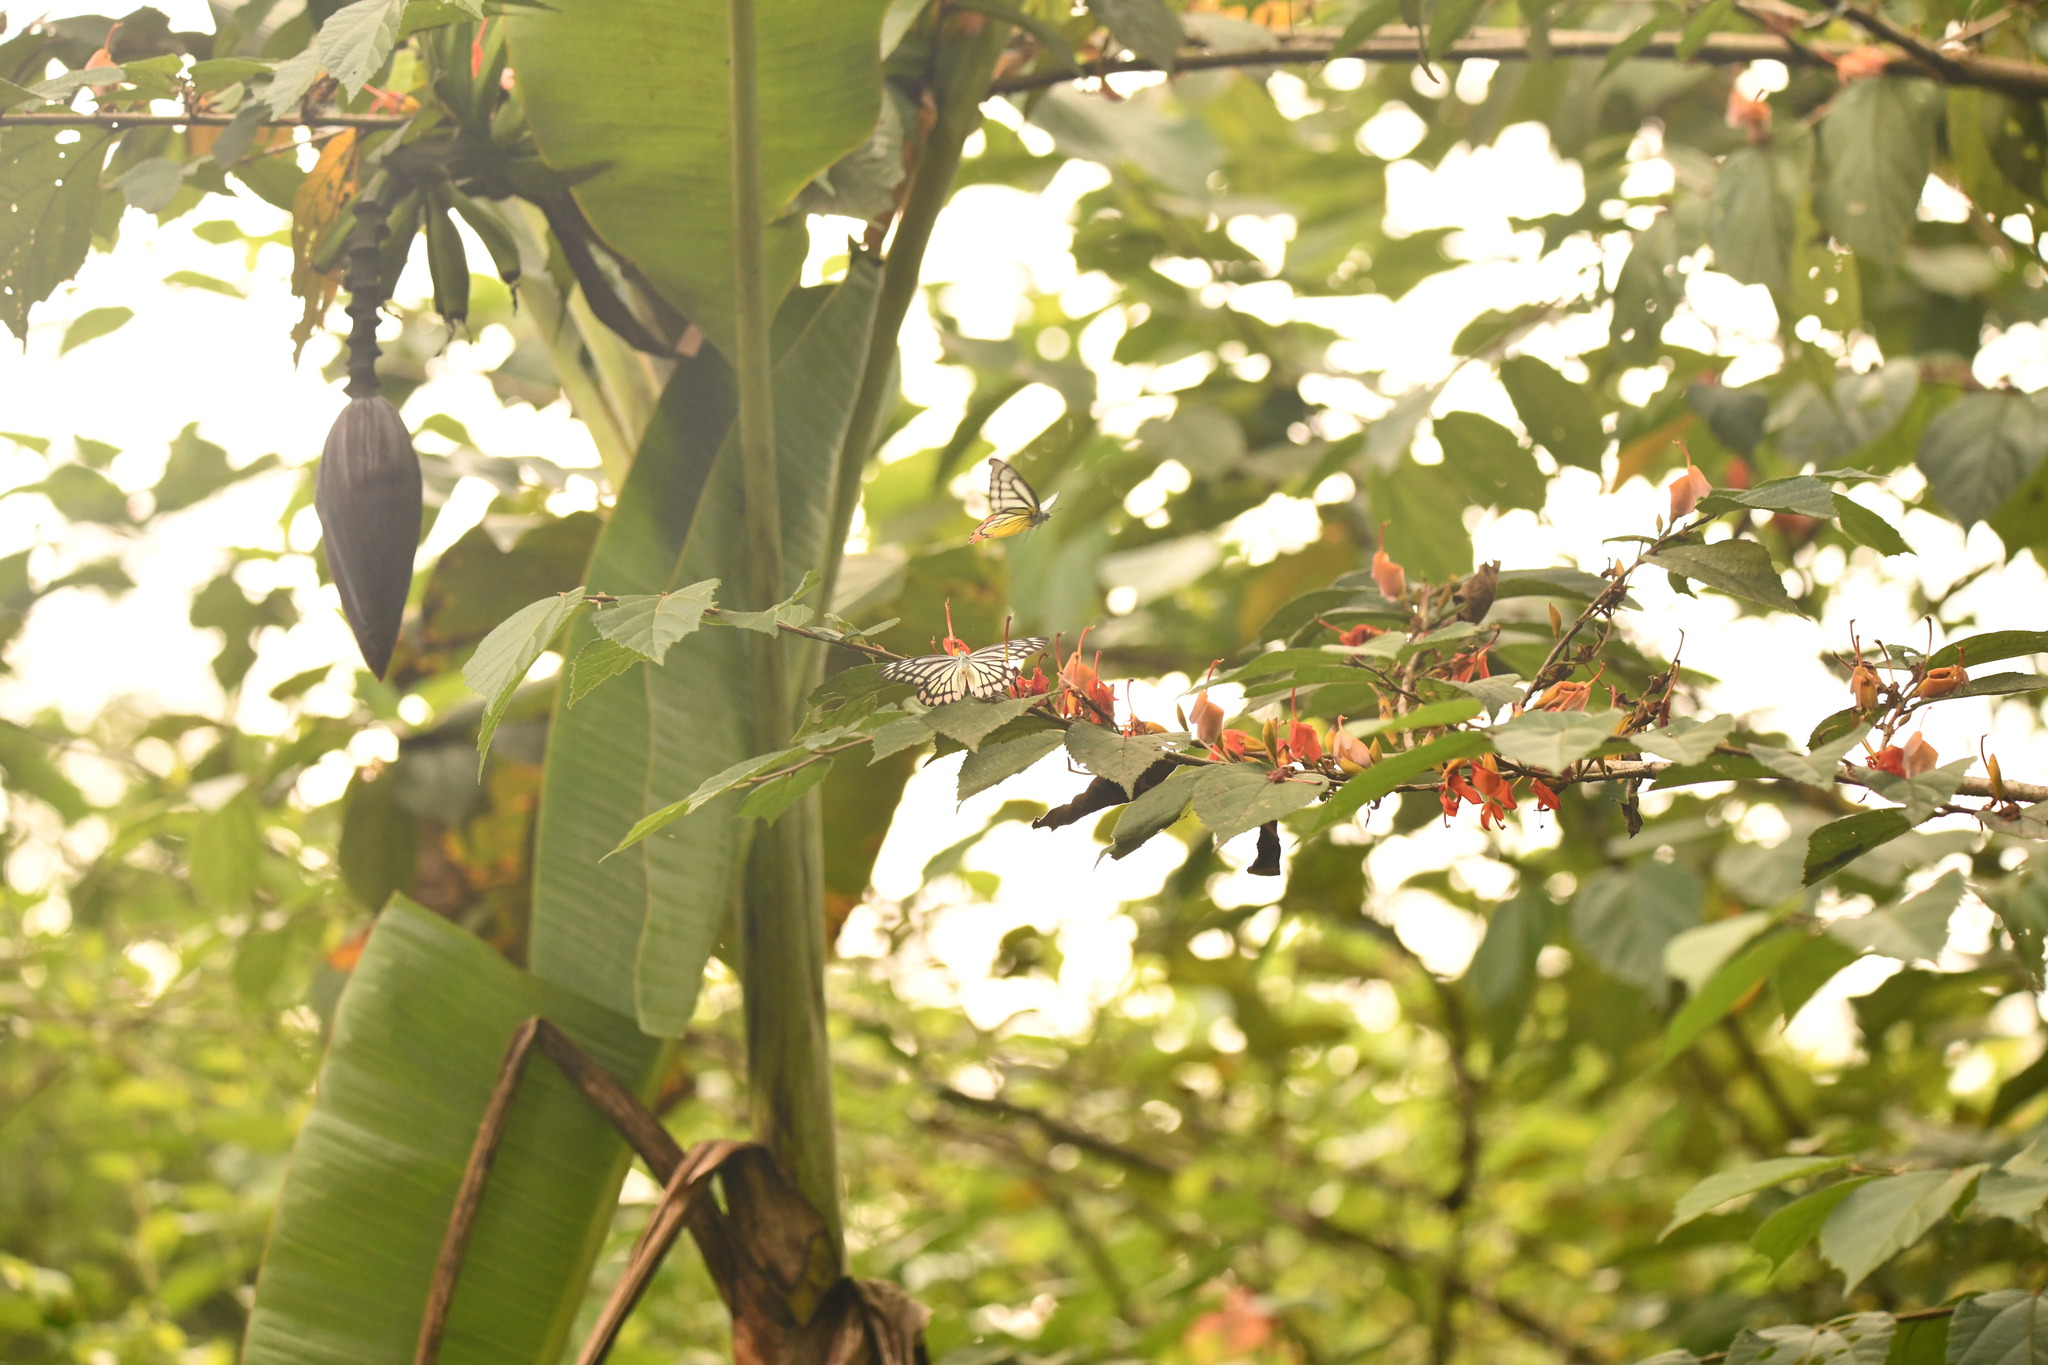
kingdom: Animalia
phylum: Arthropoda
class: Insecta
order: Lepidoptera
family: Pieridae
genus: Delias
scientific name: Delias eucharis
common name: Common jezebel
